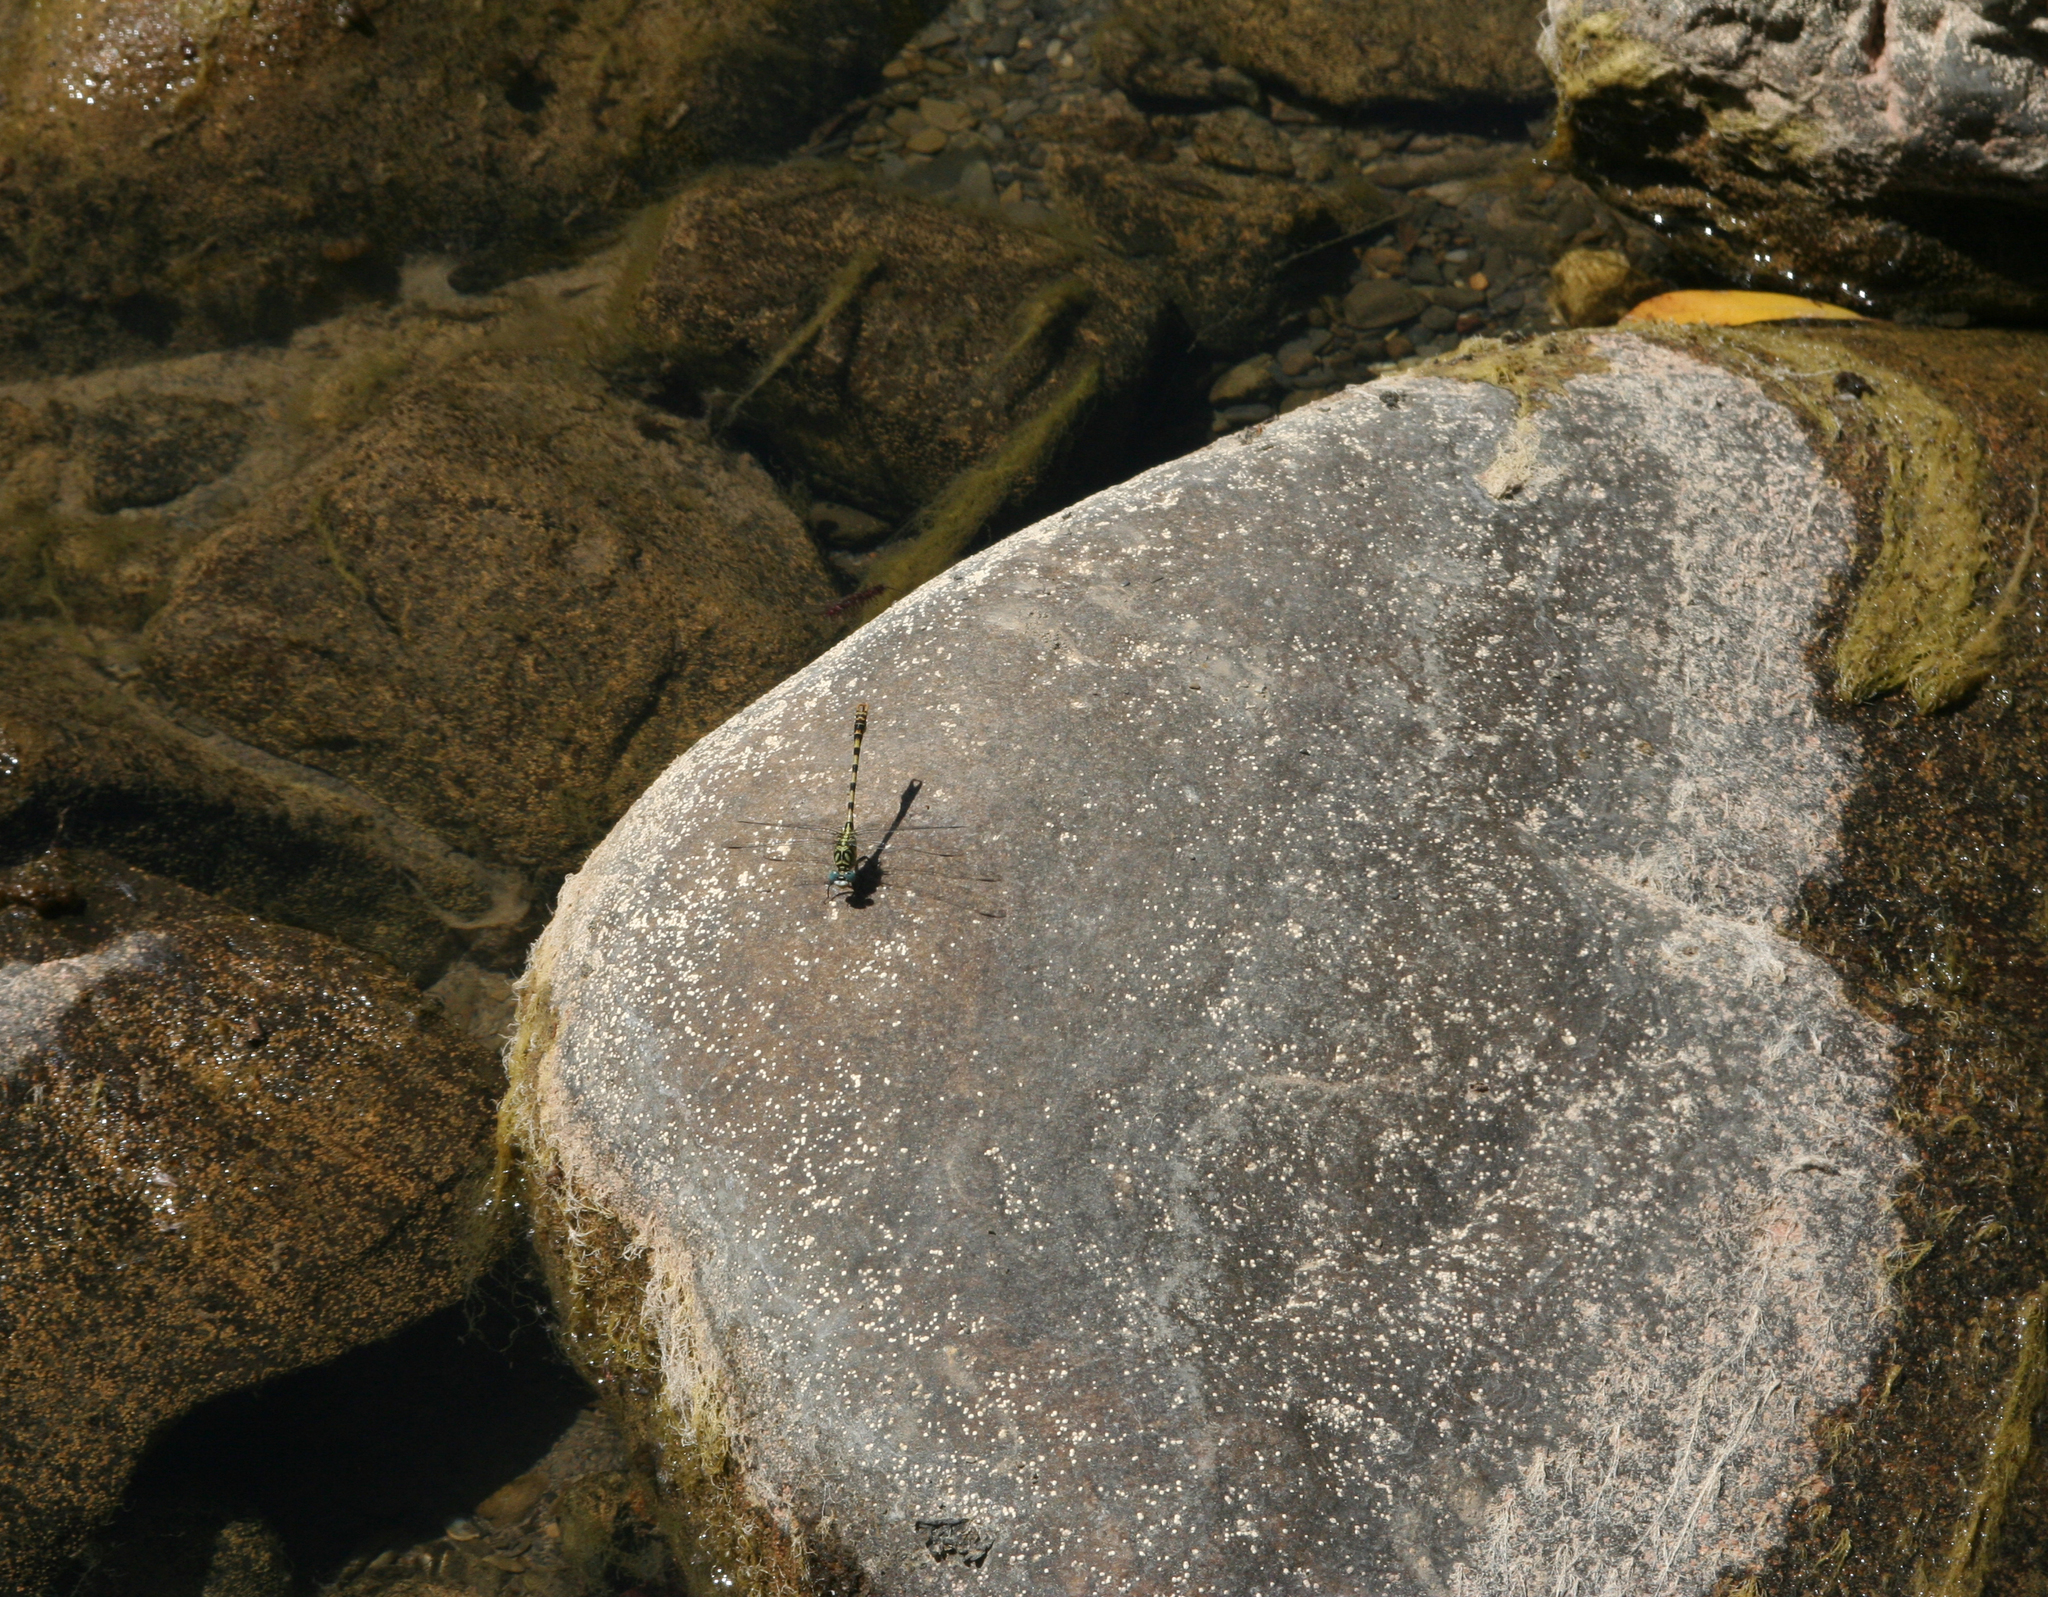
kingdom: Animalia
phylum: Arthropoda
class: Insecta
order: Odonata
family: Gomphidae
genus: Onychogomphus
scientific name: Onychogomphus forcipatus
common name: Small pincertail
